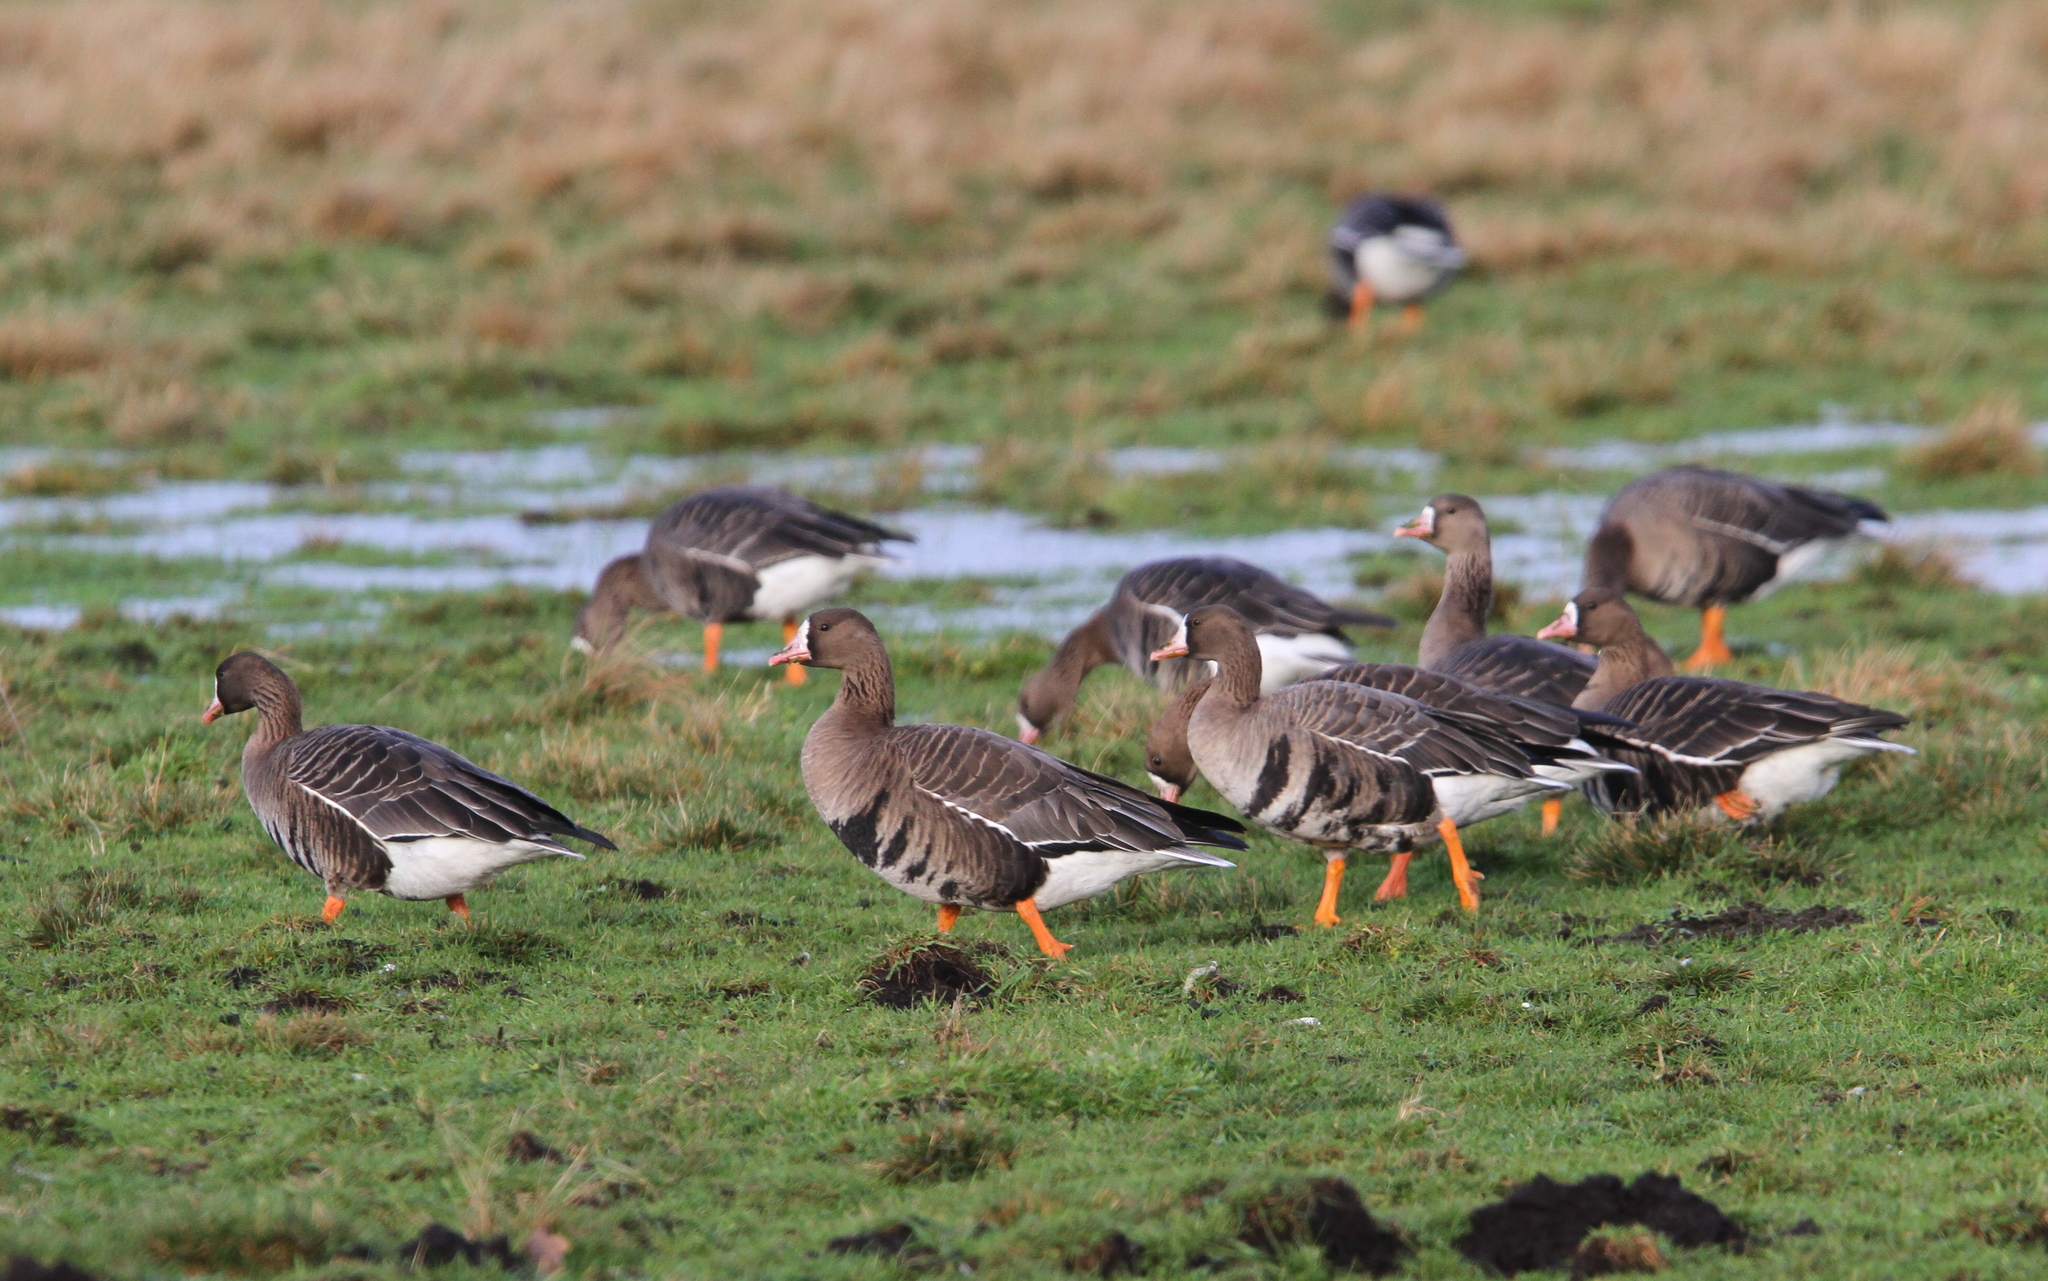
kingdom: Animalia
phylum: Chordata
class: Aves
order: Anseriformes
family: Anatidae
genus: Anser
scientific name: Anser albifrons
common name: Greater white-fronted goose
